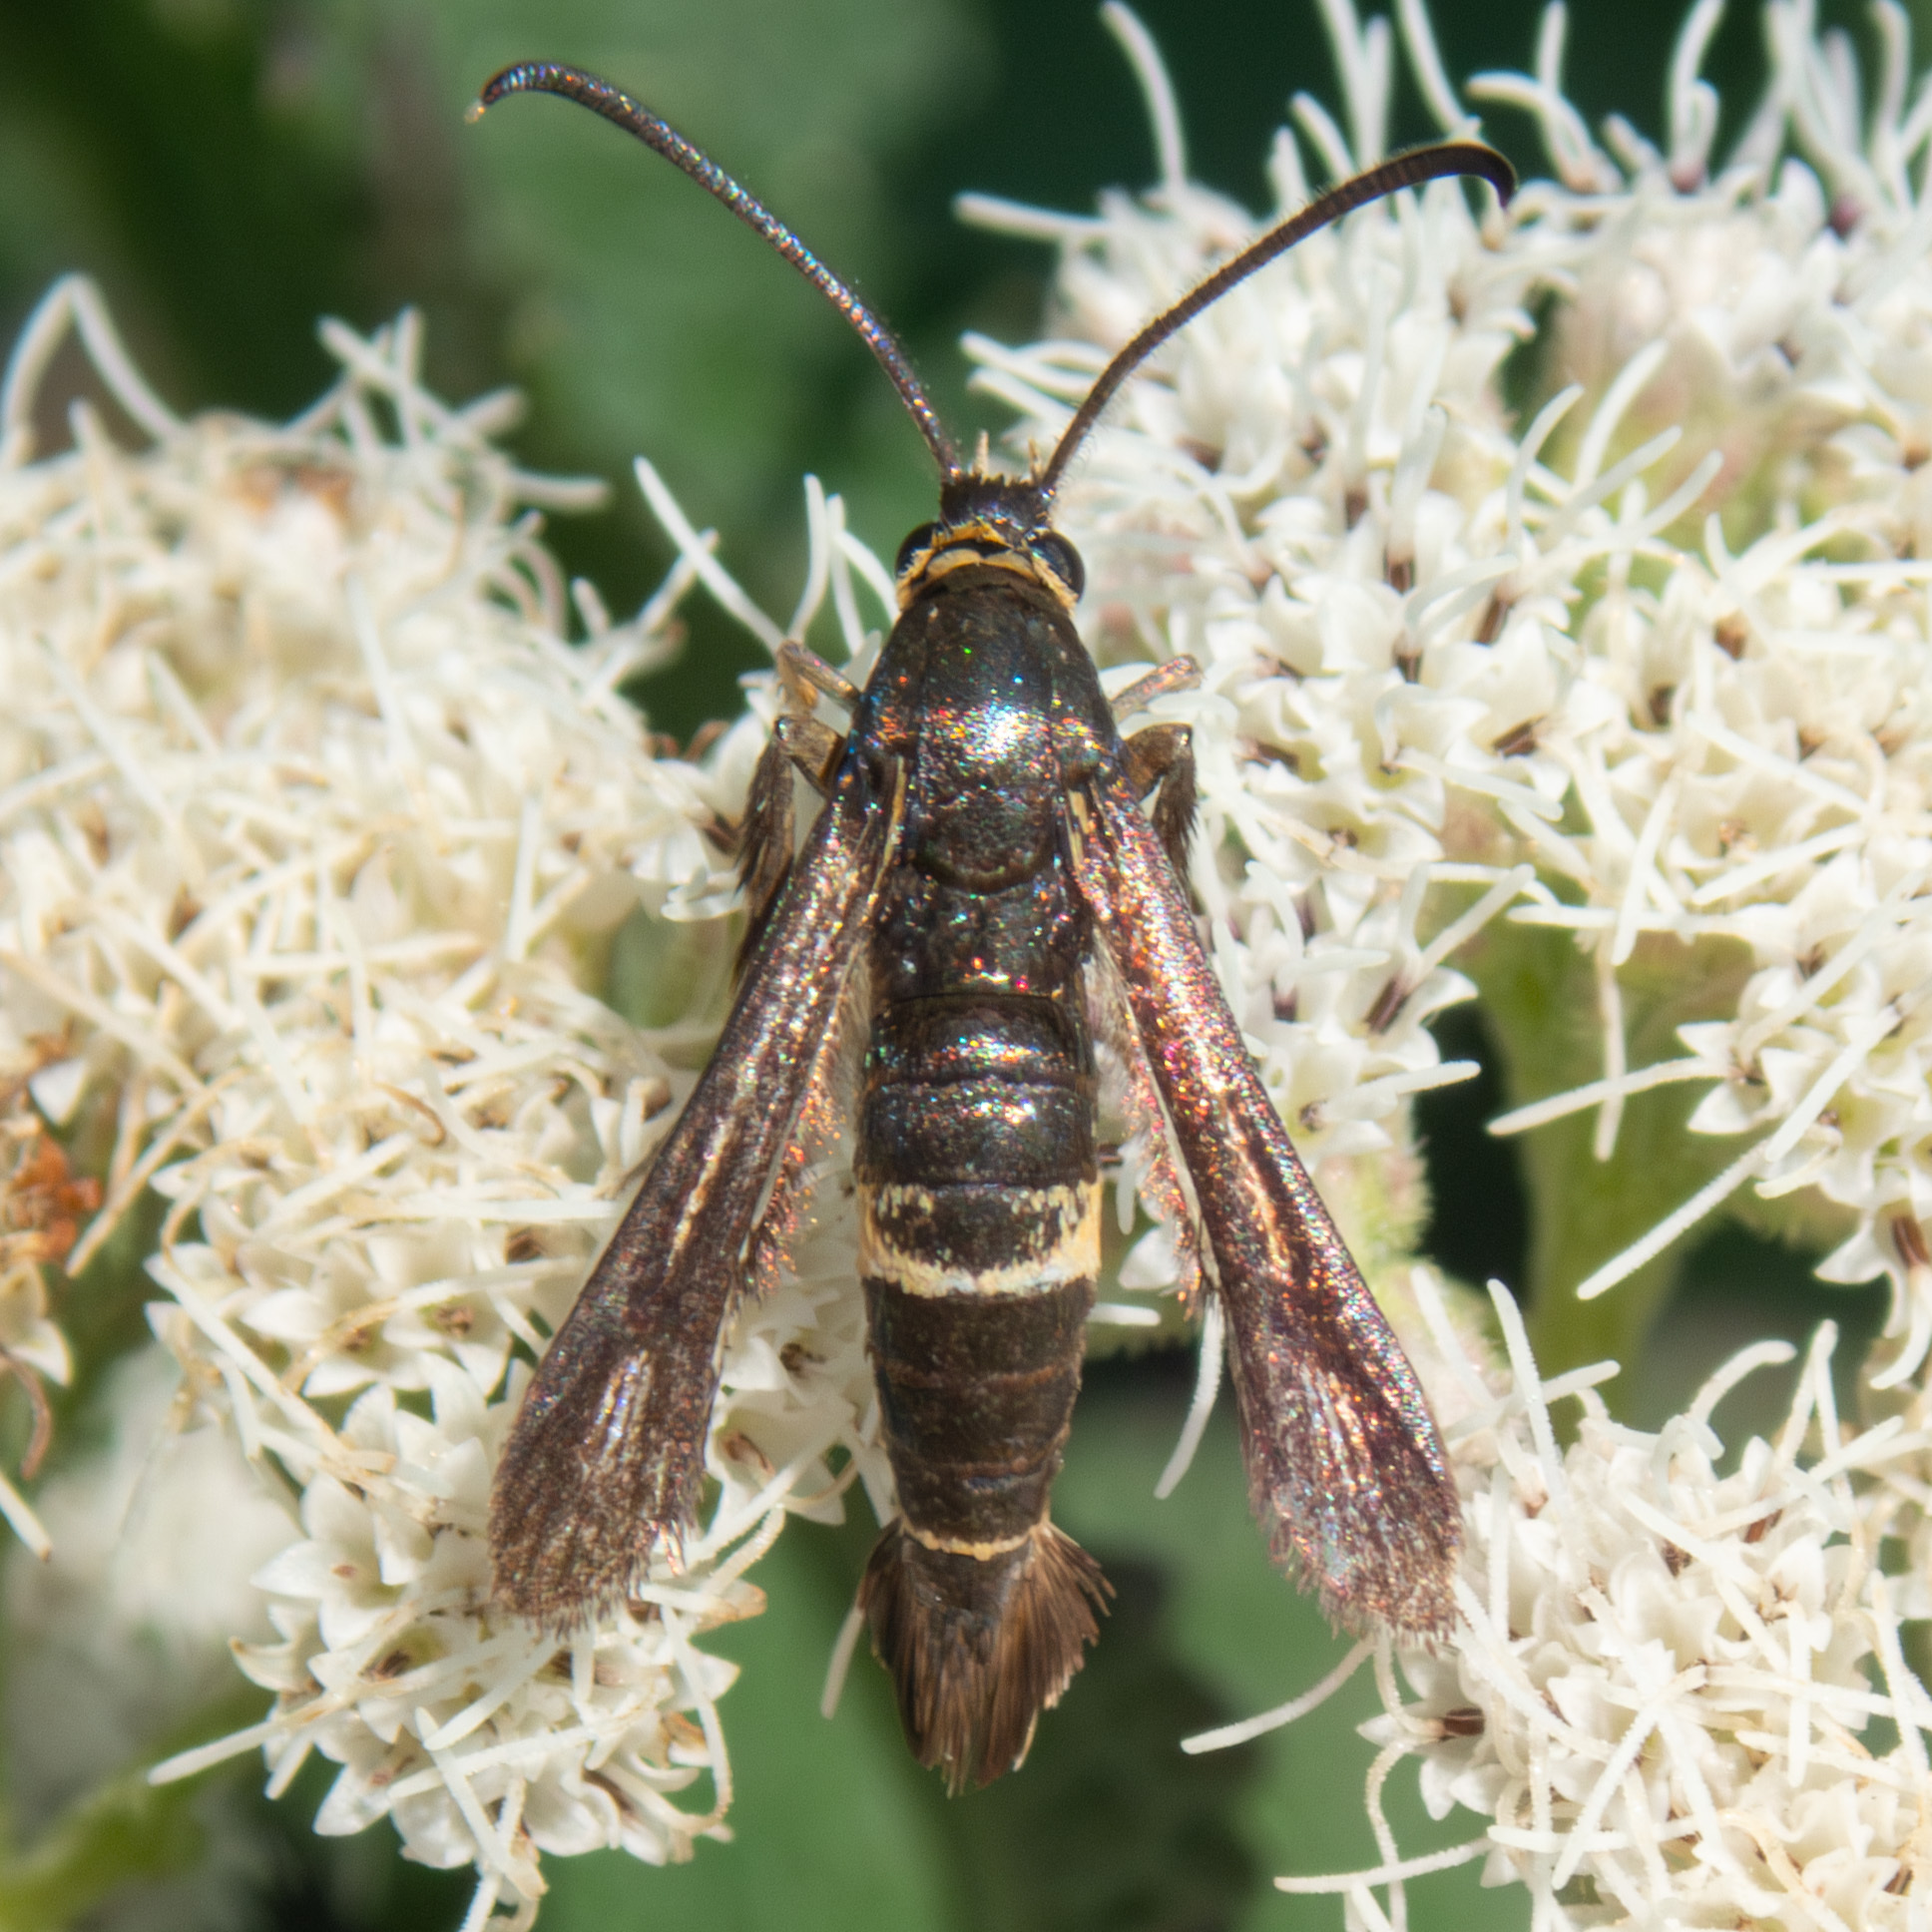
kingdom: Animalia
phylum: Arthropoda
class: Insecta
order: Lepidoptera
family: Sesiidae
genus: Carmenta
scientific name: Carmenta pyralidiformis
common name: Boneset borer moth
